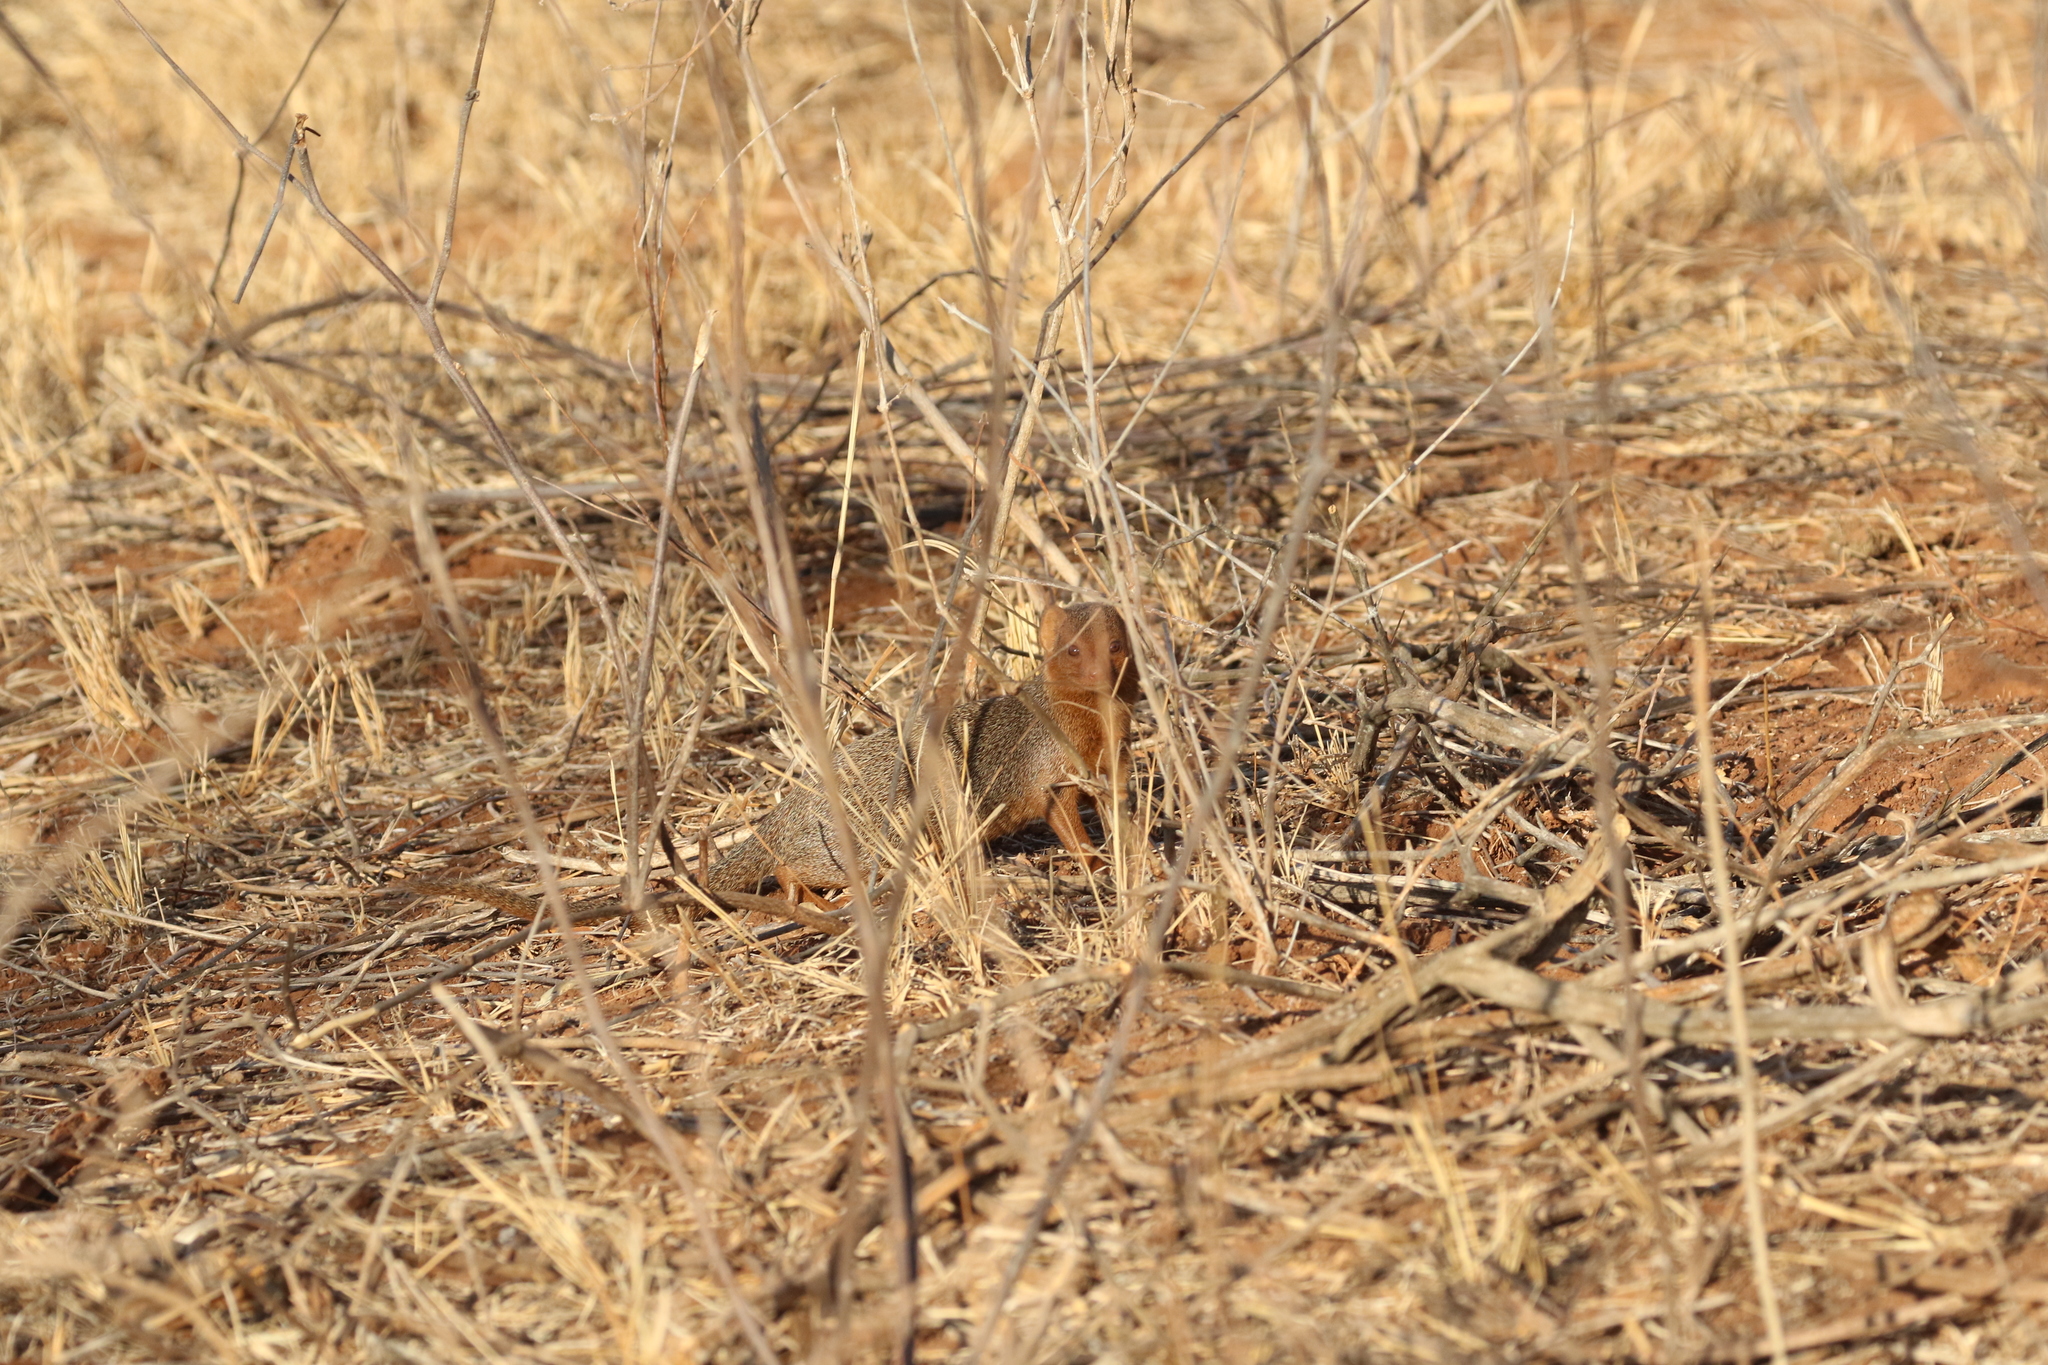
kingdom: Animalia
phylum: Chordata
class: Mammalia
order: Carnivora
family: Herpestidae
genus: Helogale
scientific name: Helogale parvula
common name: Common dwarf mongoose
